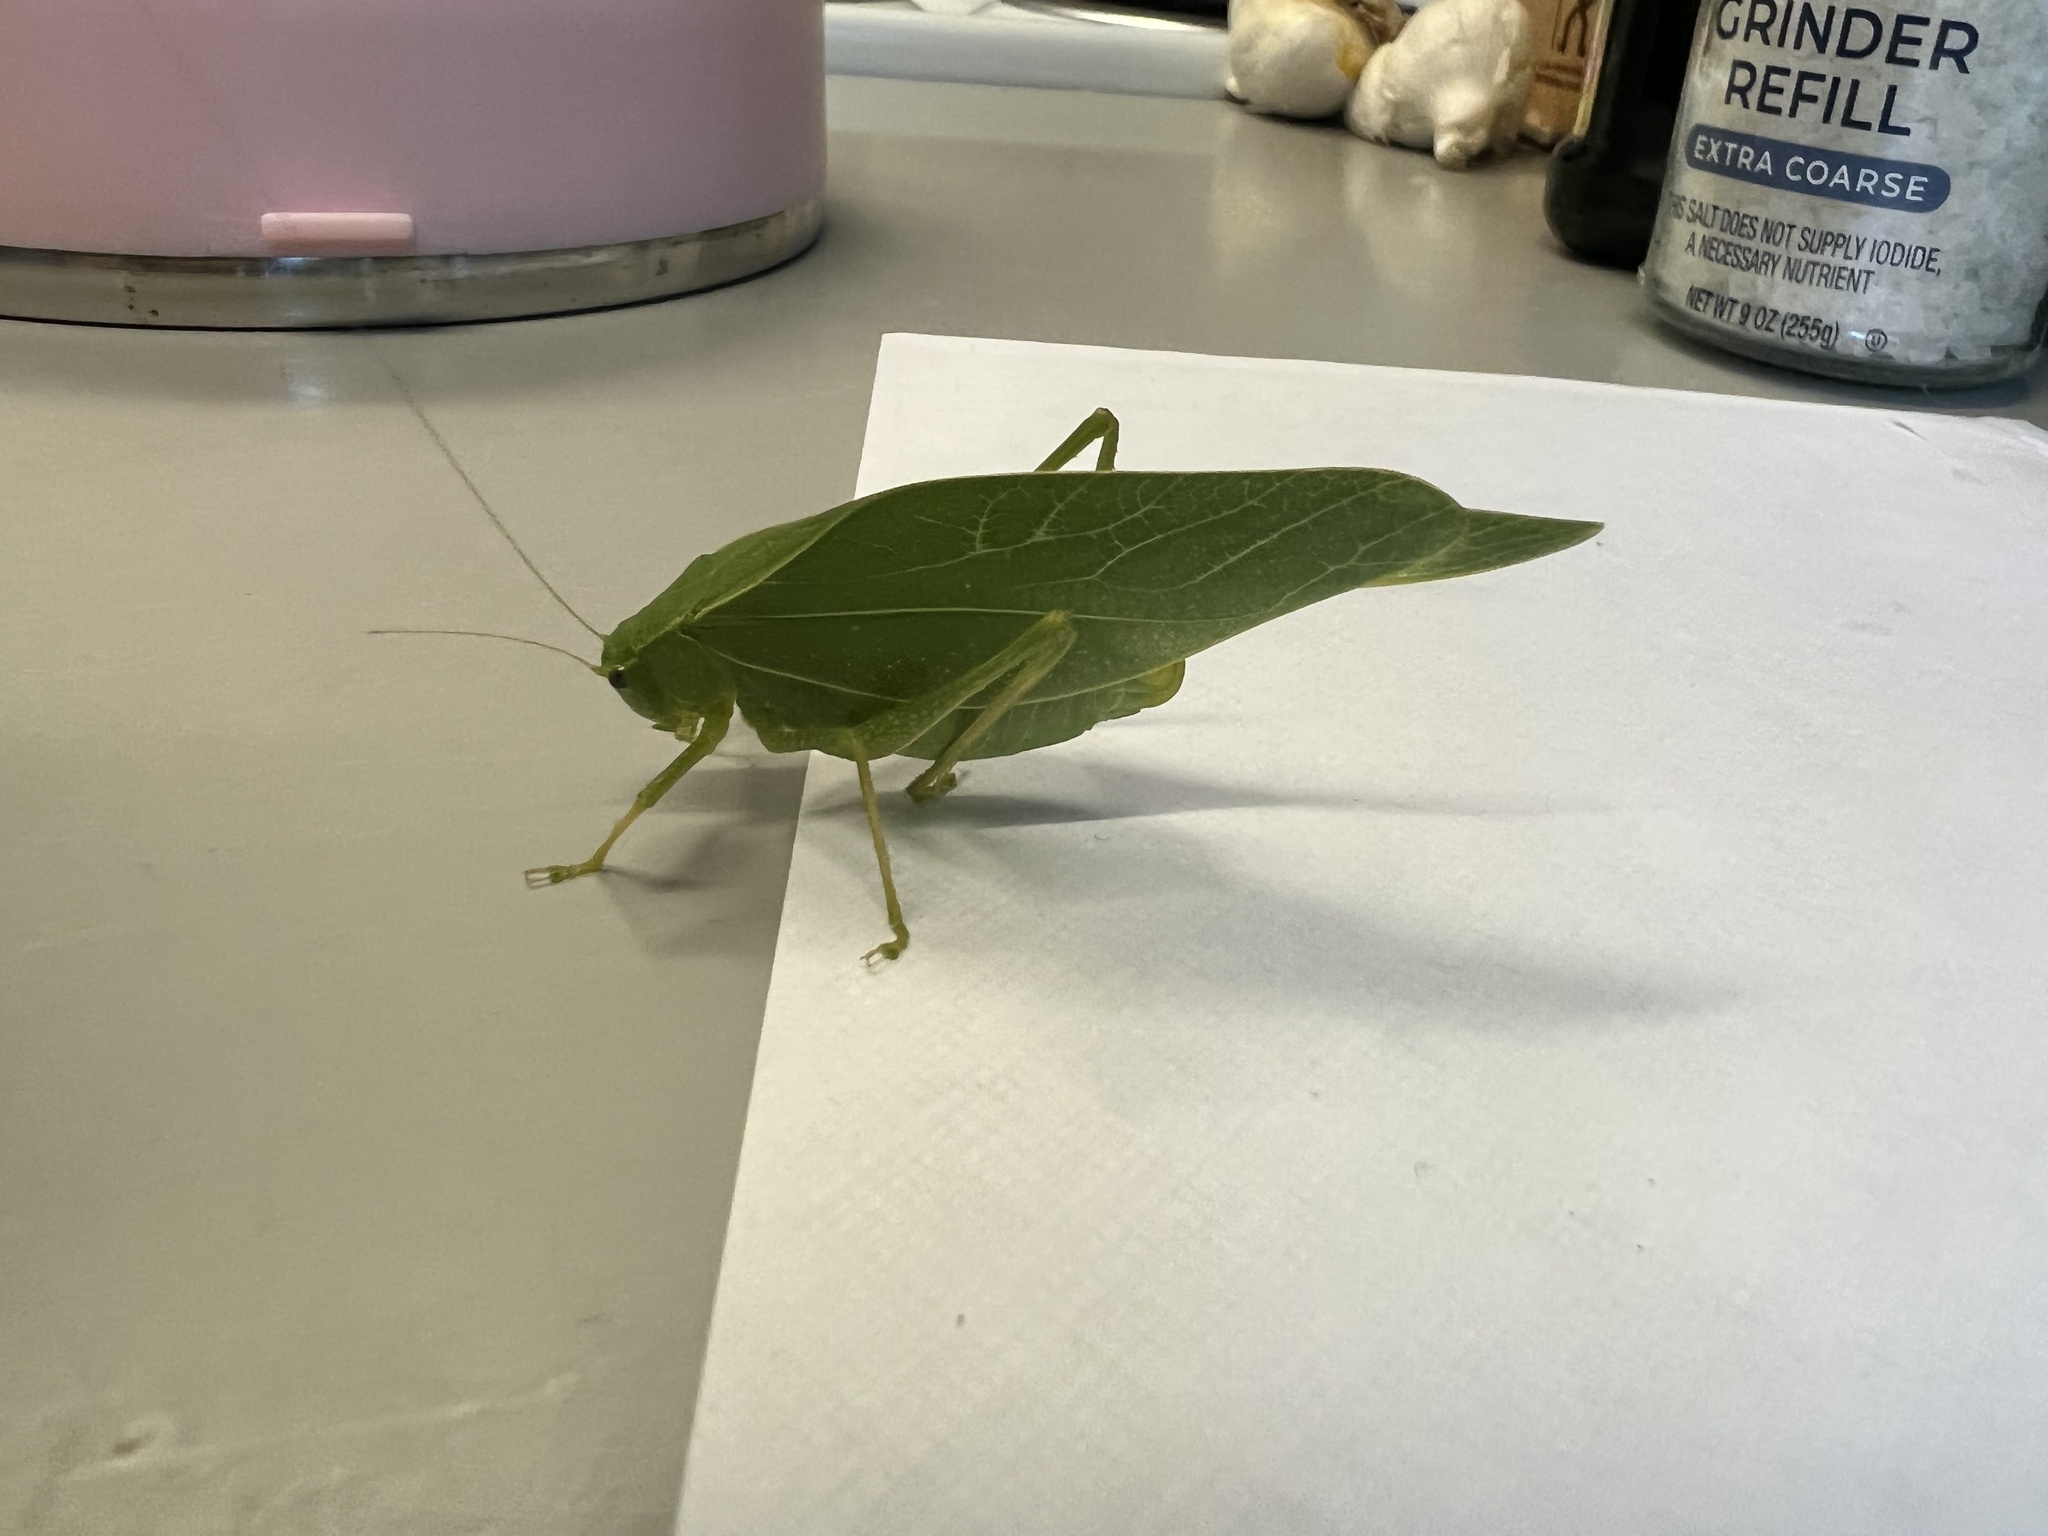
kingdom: Animalia
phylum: Arthropoda
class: Insecta
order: Orthoptera
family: Tettigoniidae
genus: Microcentrum
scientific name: Microcentrum rhombifolium
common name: Broad-winged katydid
